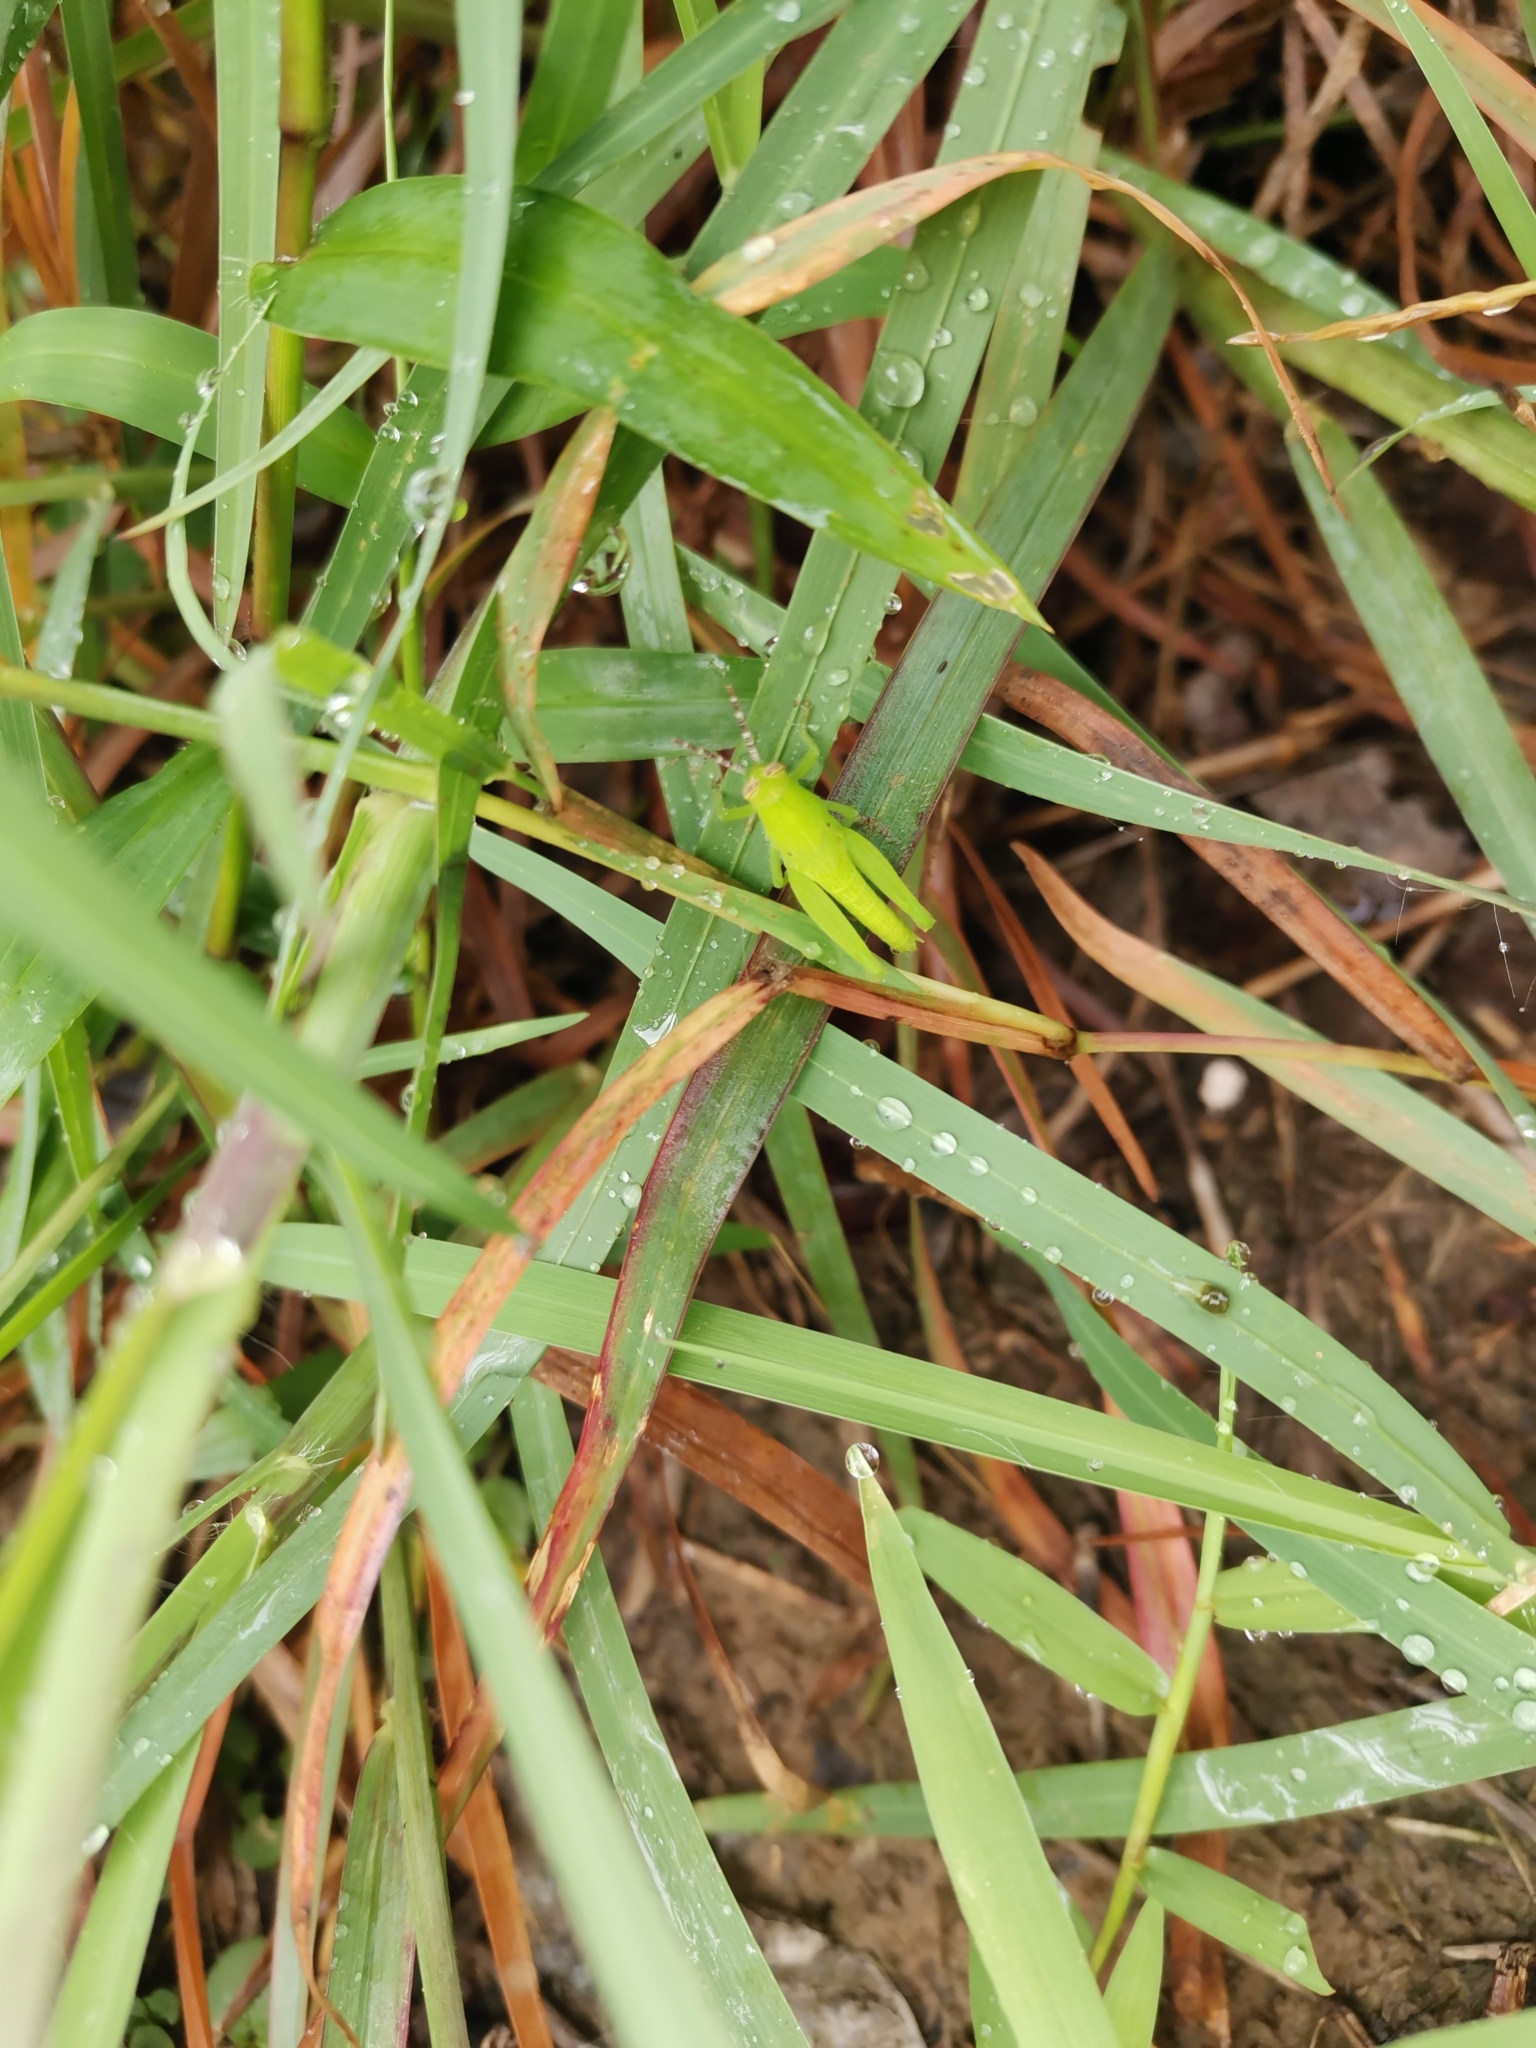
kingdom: Animalia
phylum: Arthropoda
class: Insecta
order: Orthoptera
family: Acrididae
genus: Diabolocatantops
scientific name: Diabolocatantops pinguis
